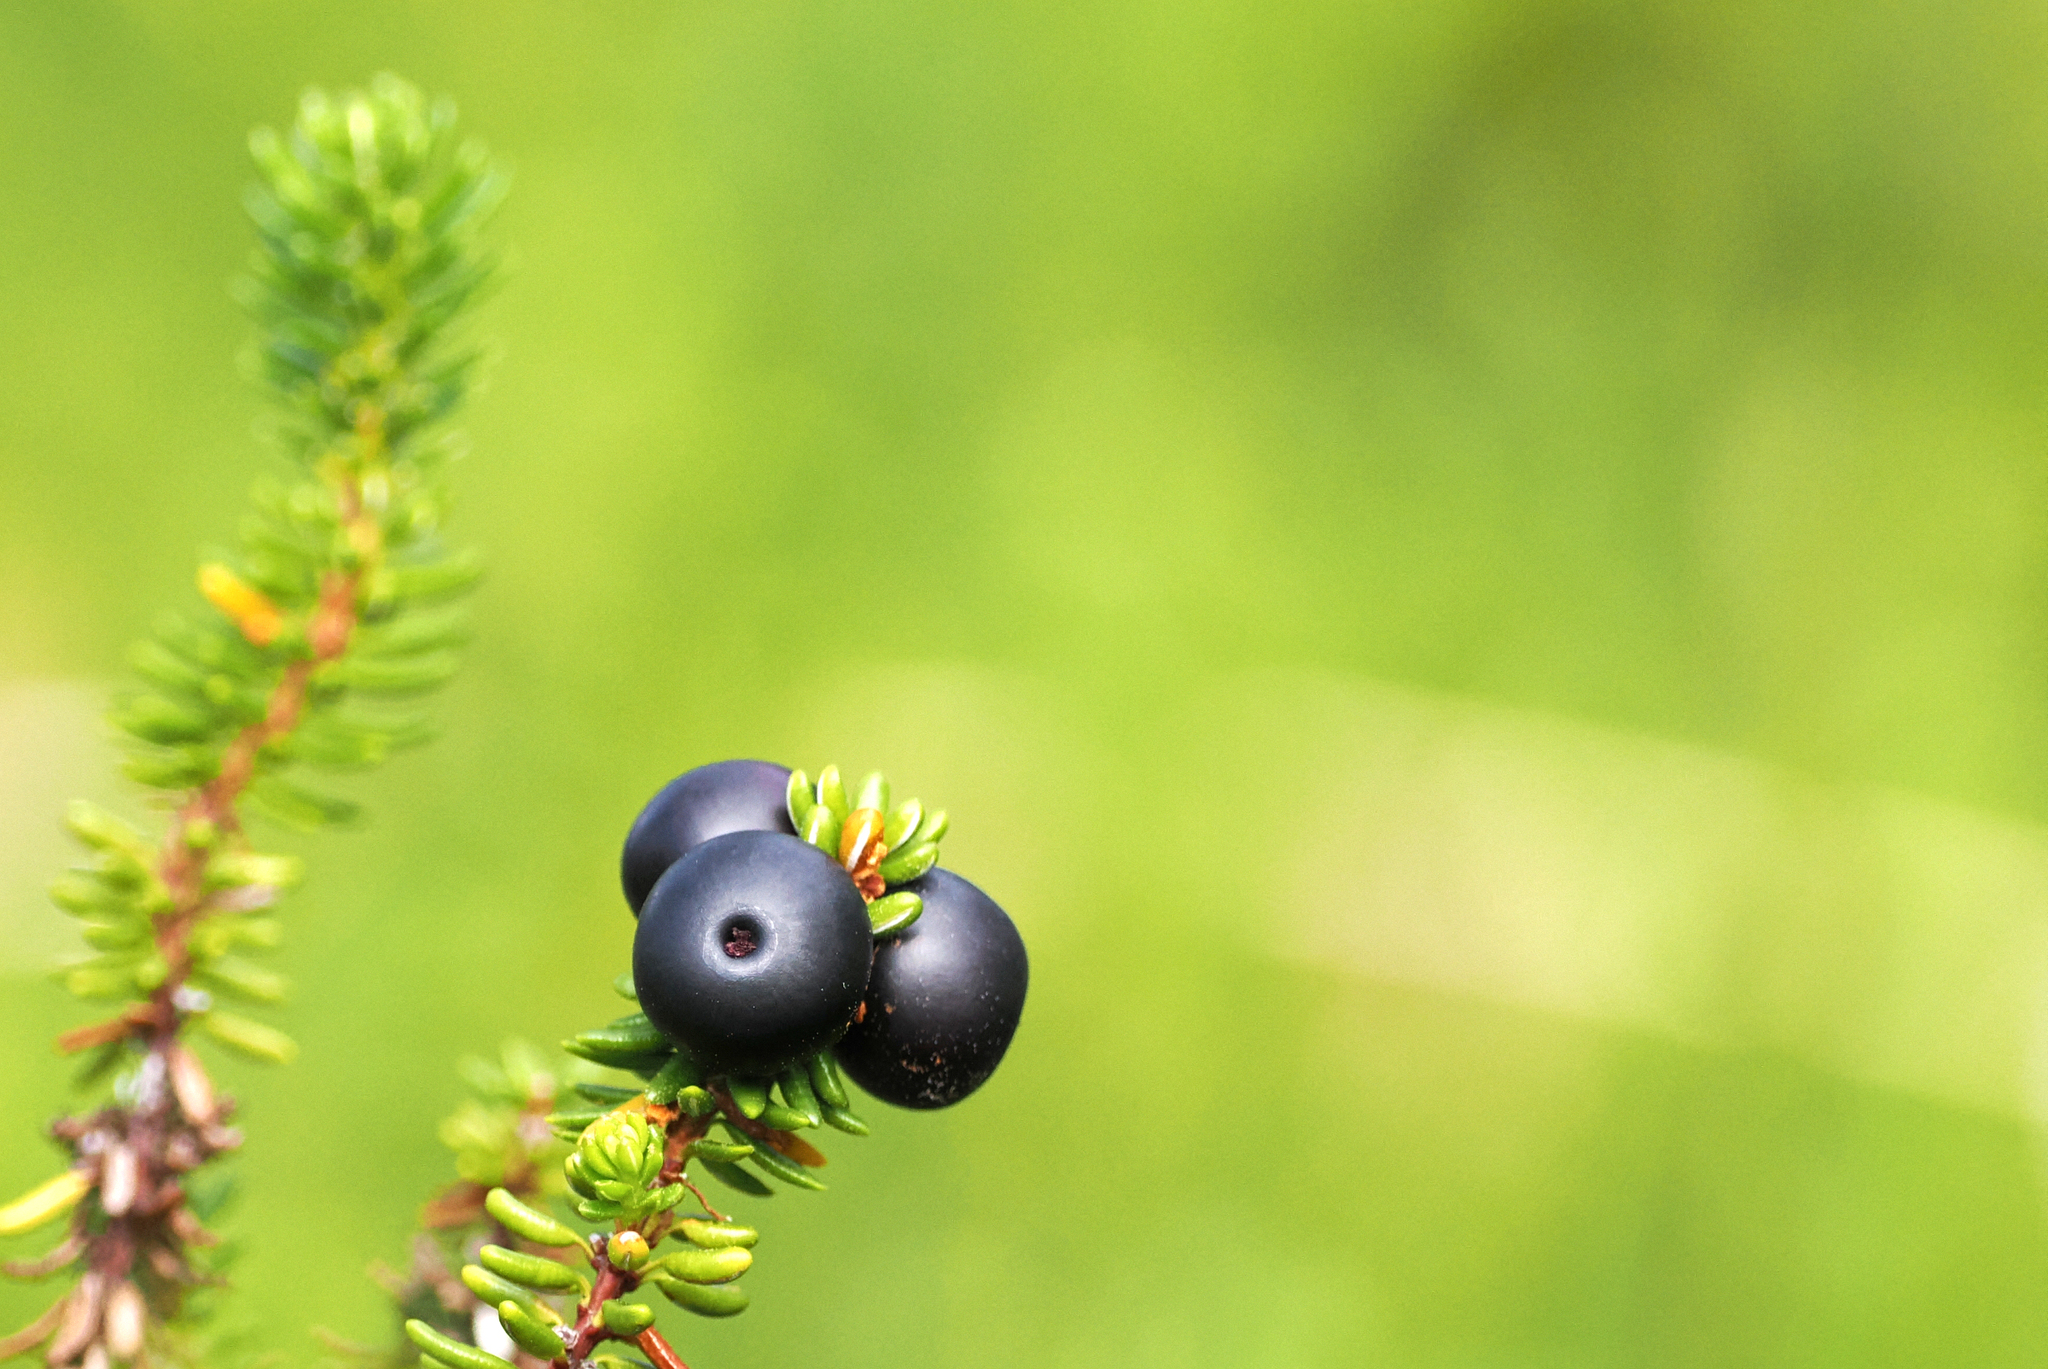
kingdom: Plantae
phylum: Tracheophyta
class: Magnoliopsida
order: Ericales
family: Ericaceae
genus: Empetrum
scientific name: Empetrum nigrum
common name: Black crowberry
